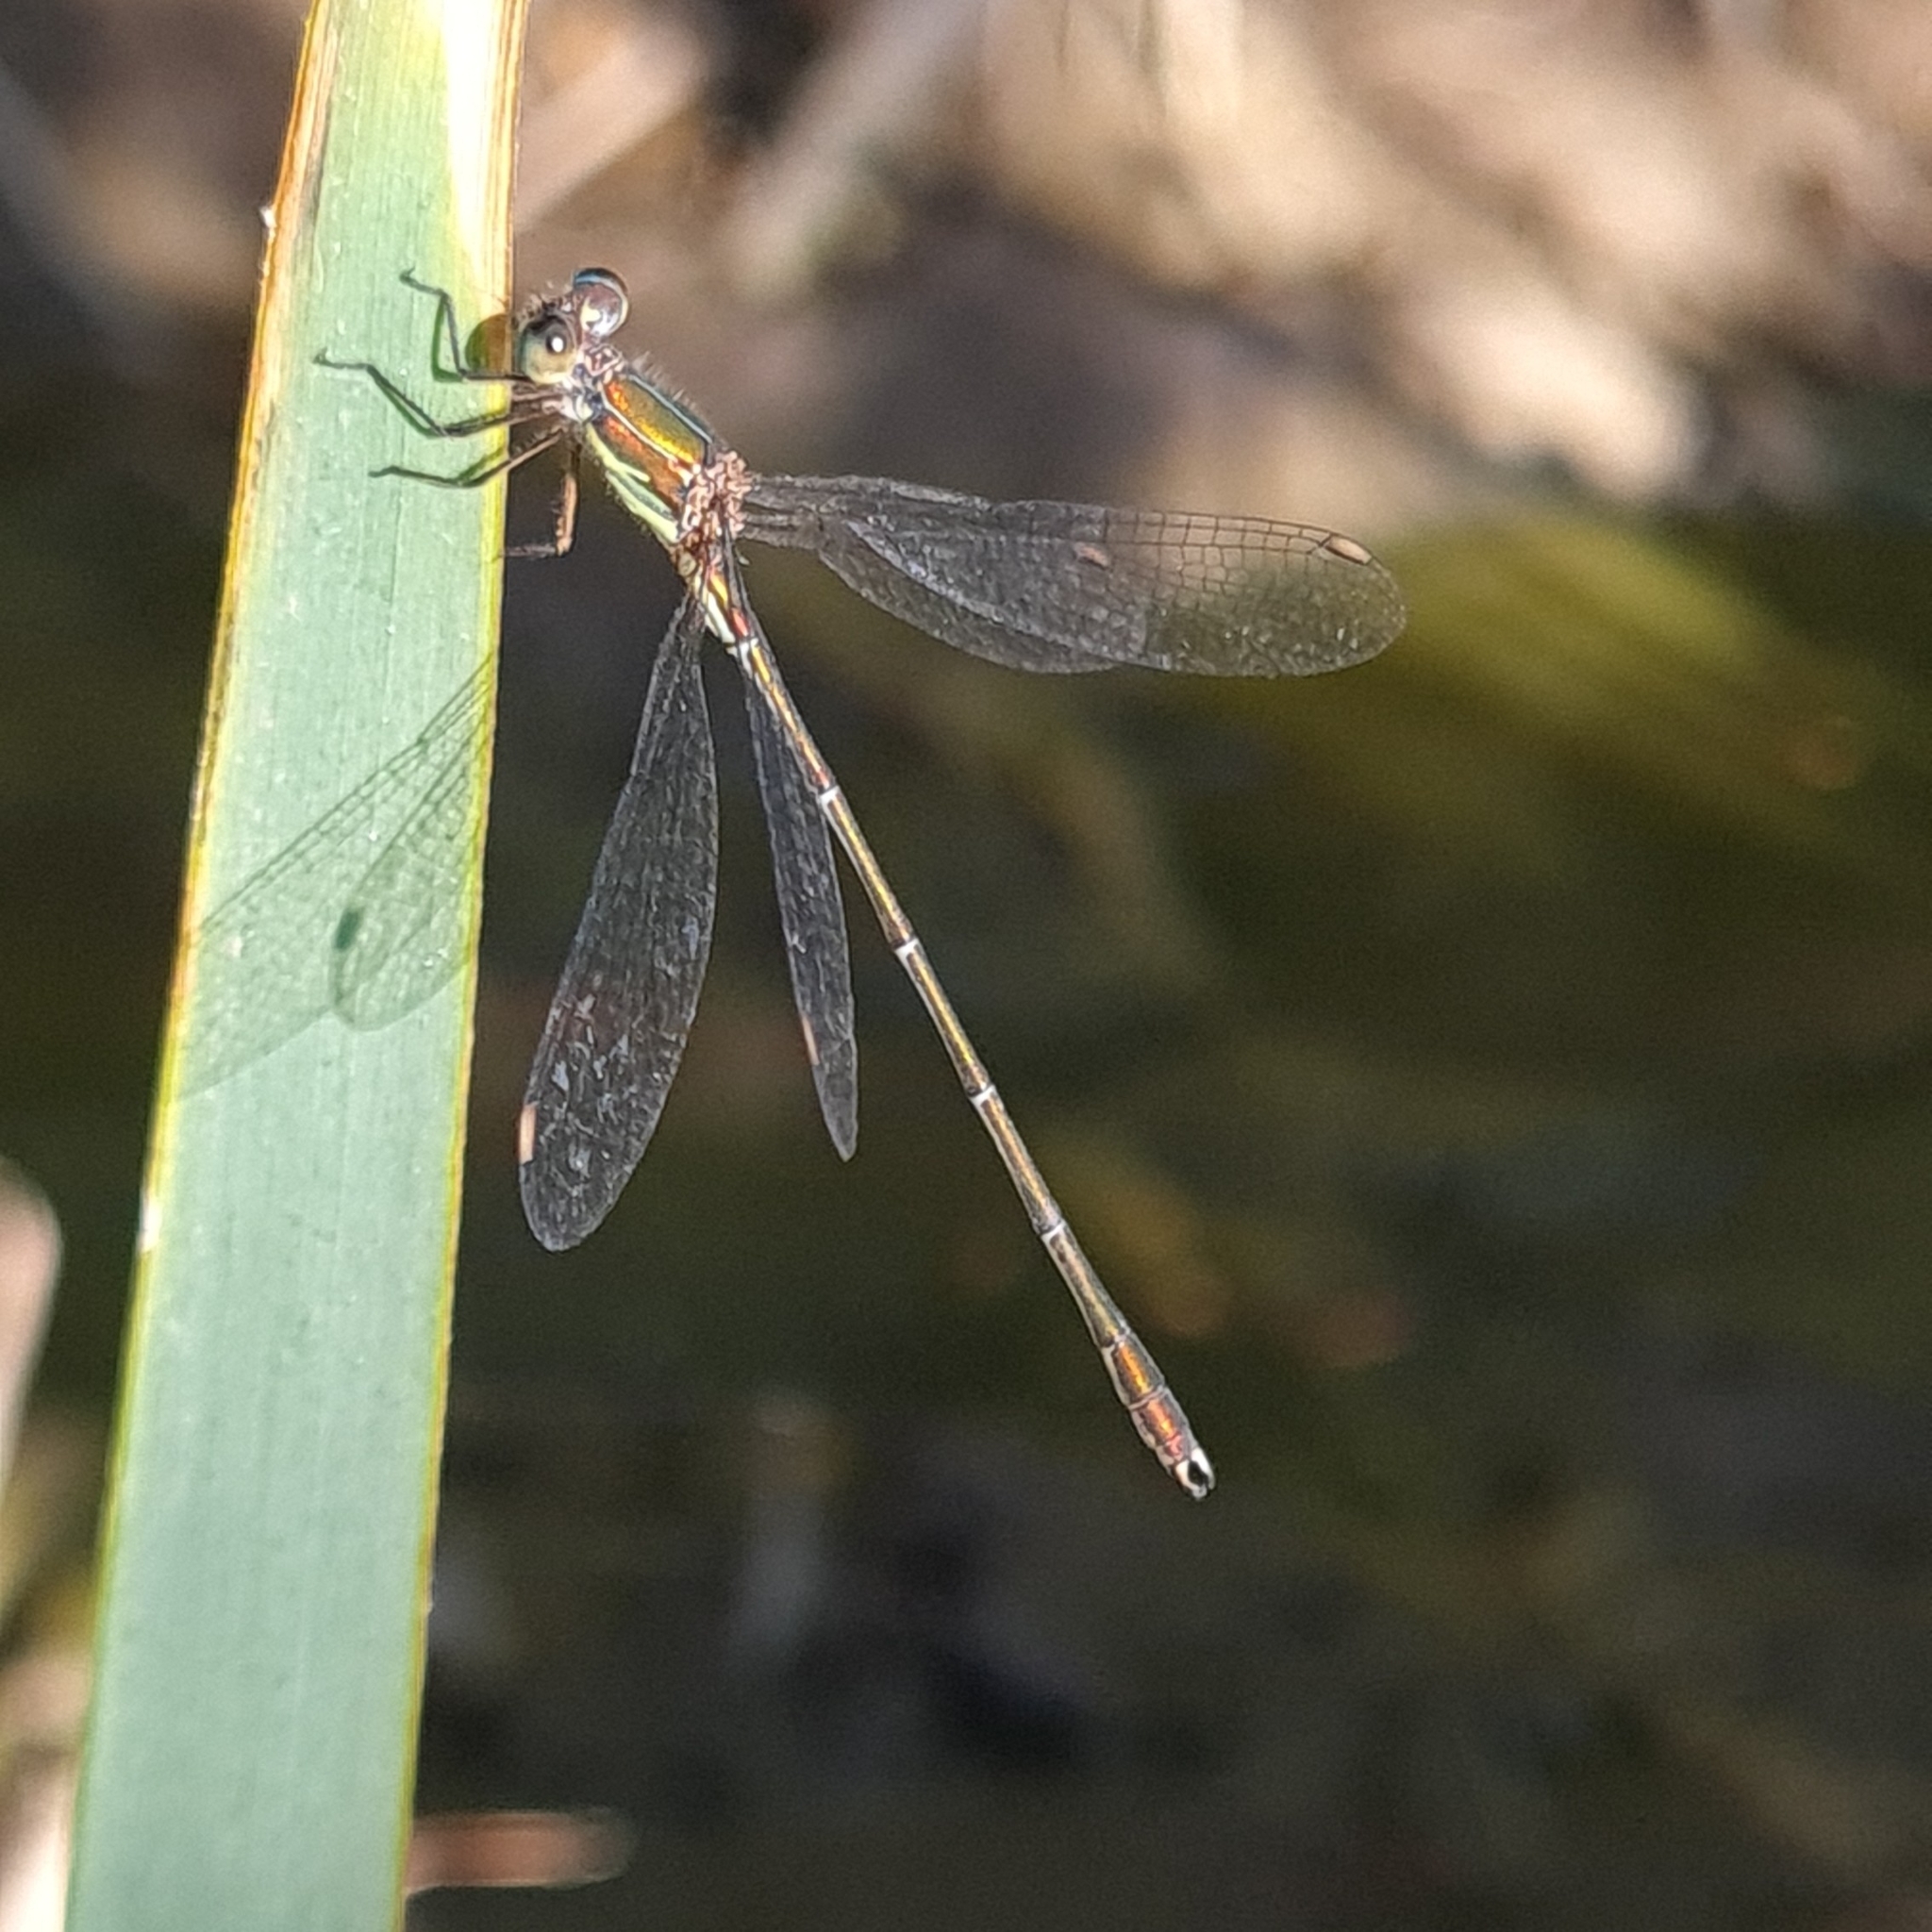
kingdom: Animalia
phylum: Arthropoda
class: Insecta
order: Odonata
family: Lestidae
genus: Chalcolestes
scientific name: Chalcolestes viridis
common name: Green emerald damselfly
